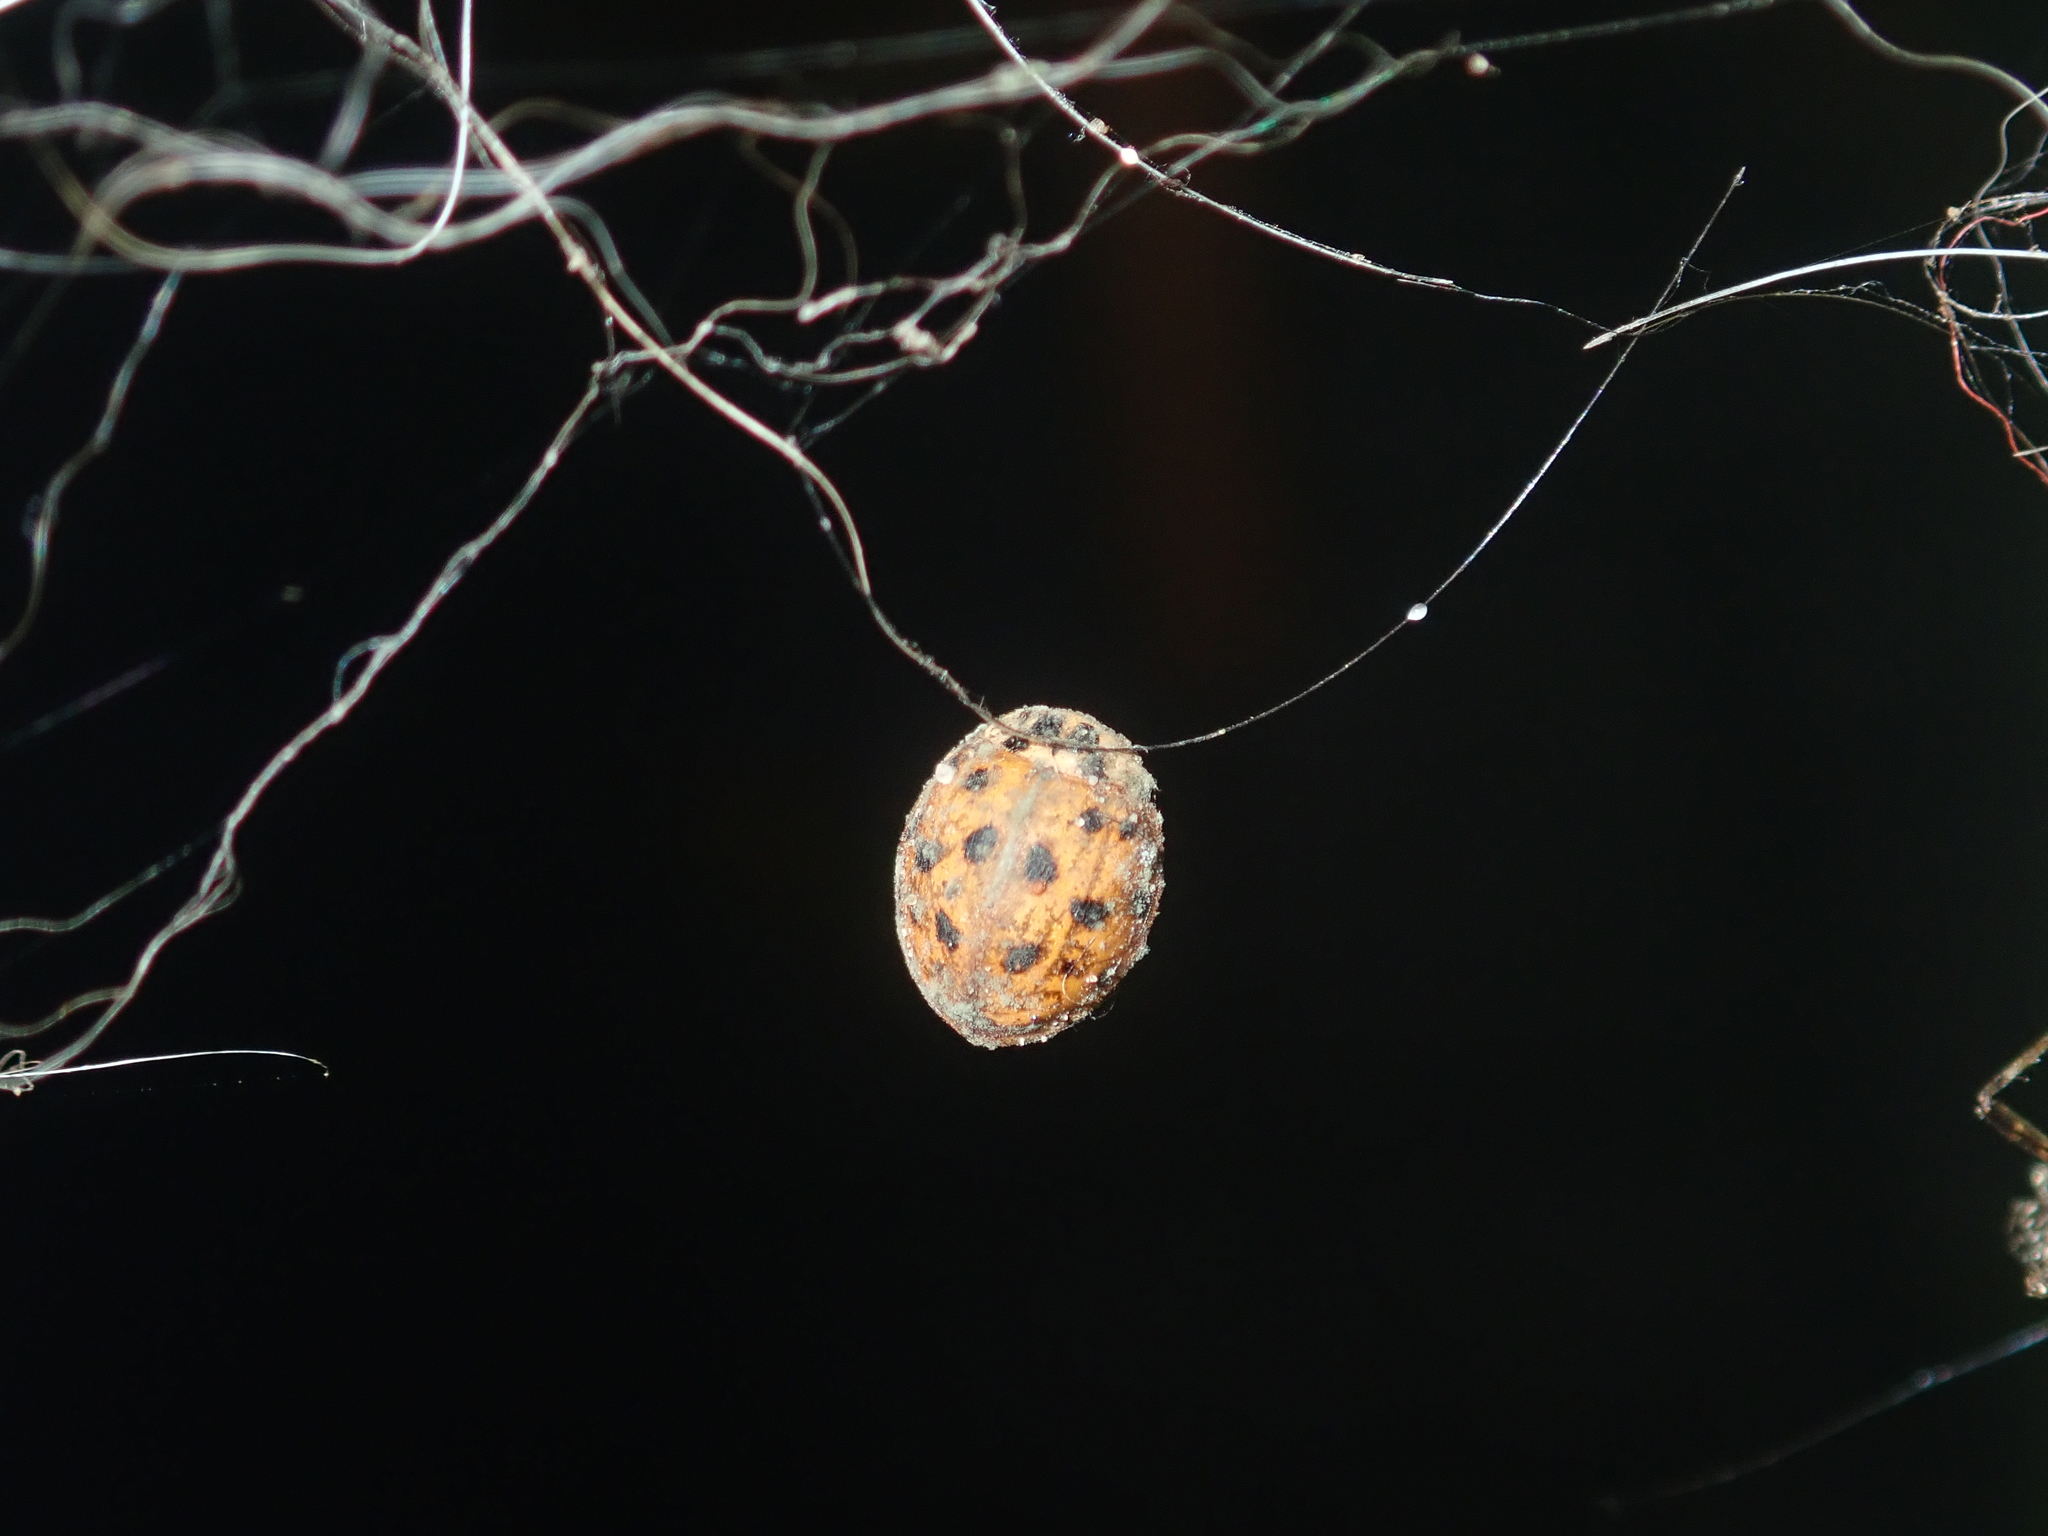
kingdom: Animalia
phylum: Arthropoda
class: Insecta
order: Coleoptera
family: Coccinellidae
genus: Harmonia
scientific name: Harmonia axyridis
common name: Harlequin ladybird
